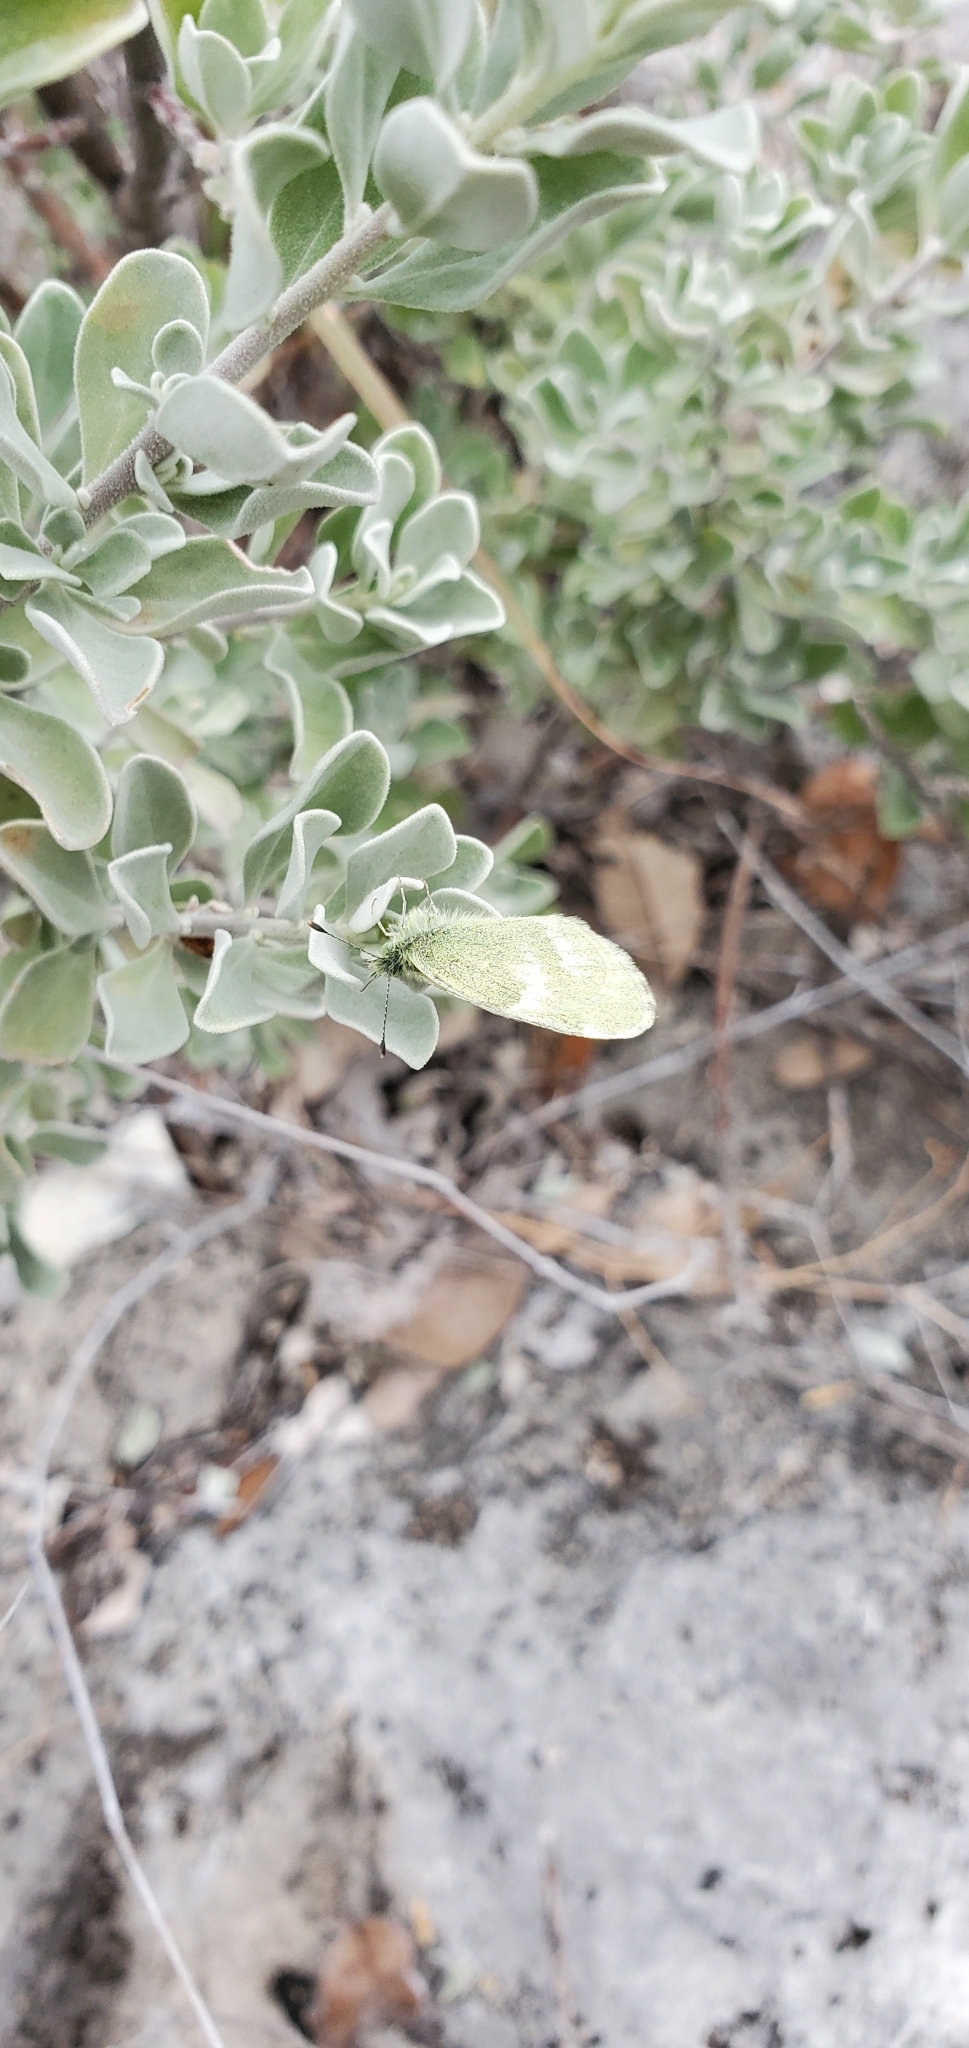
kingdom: Animalia
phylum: Arthropoda
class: Insecta
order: Lepidoptera
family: Pieridae
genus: Nathalis
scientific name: Nathalis iole
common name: Dainty sulphur
